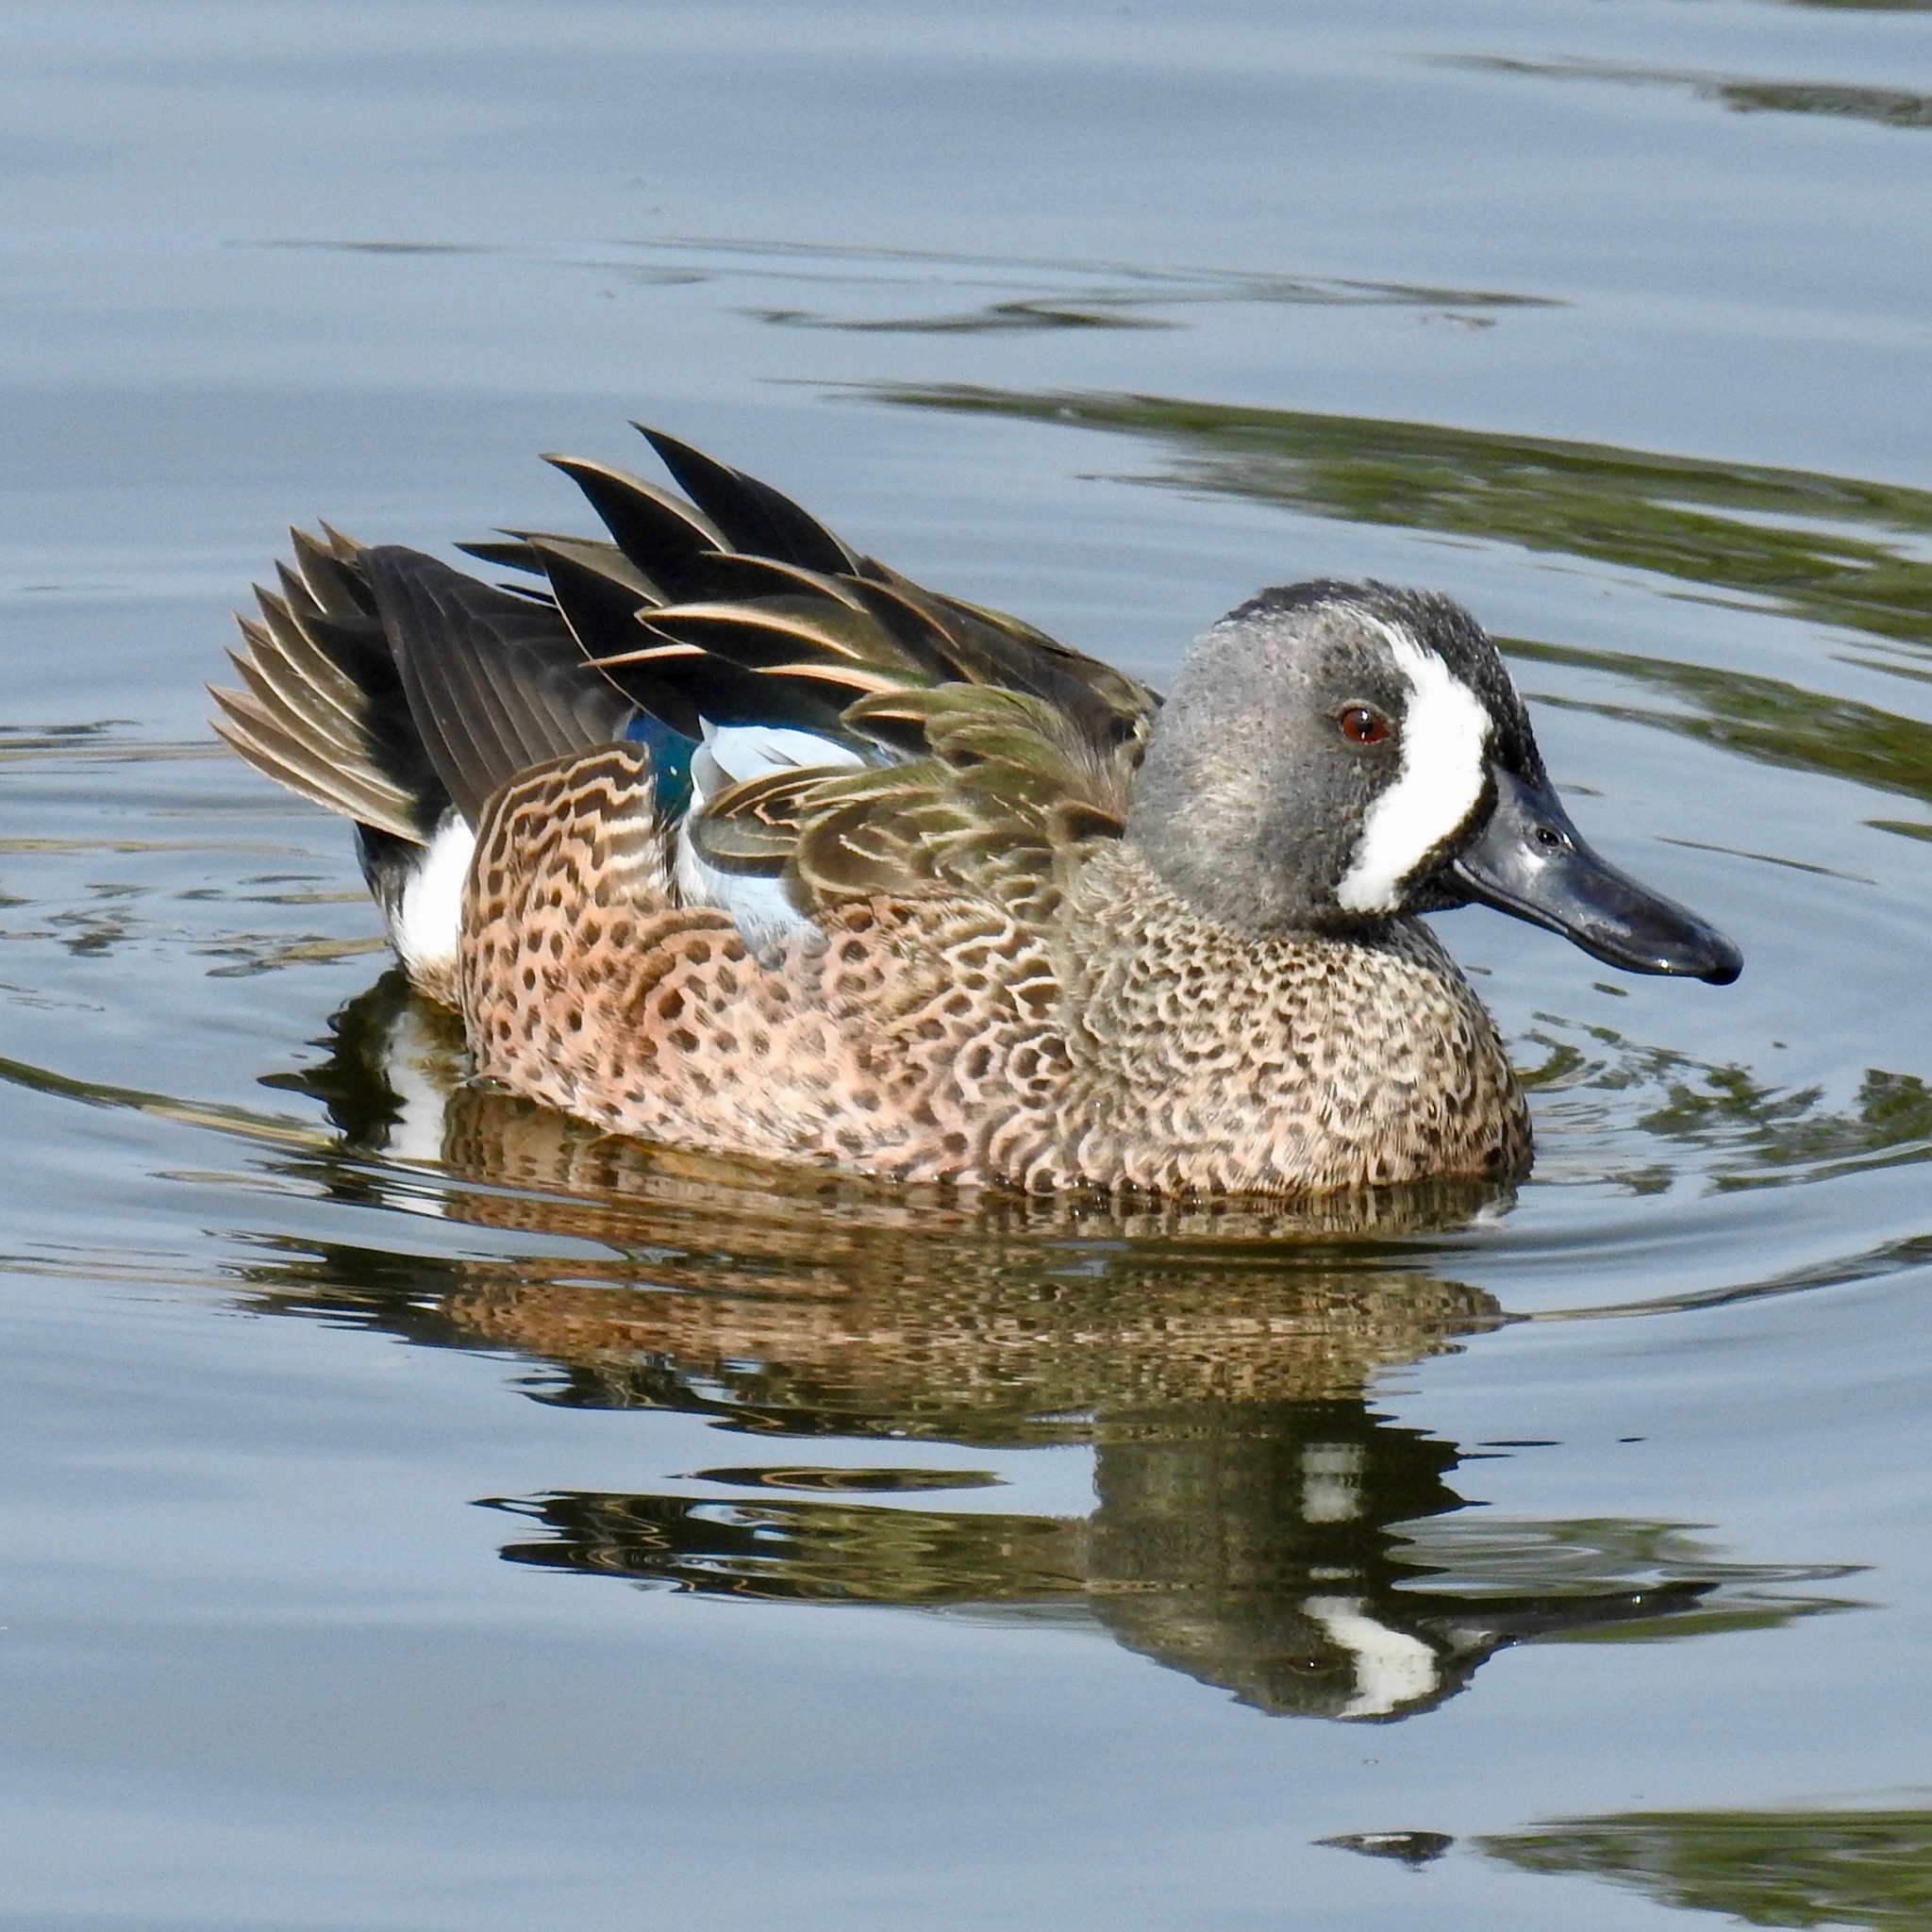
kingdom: Animalia
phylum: Chordata
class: Aves
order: Anseriformes
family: Anatidae
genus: Spatula
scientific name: Spatula discors
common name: Blue-winged teal
